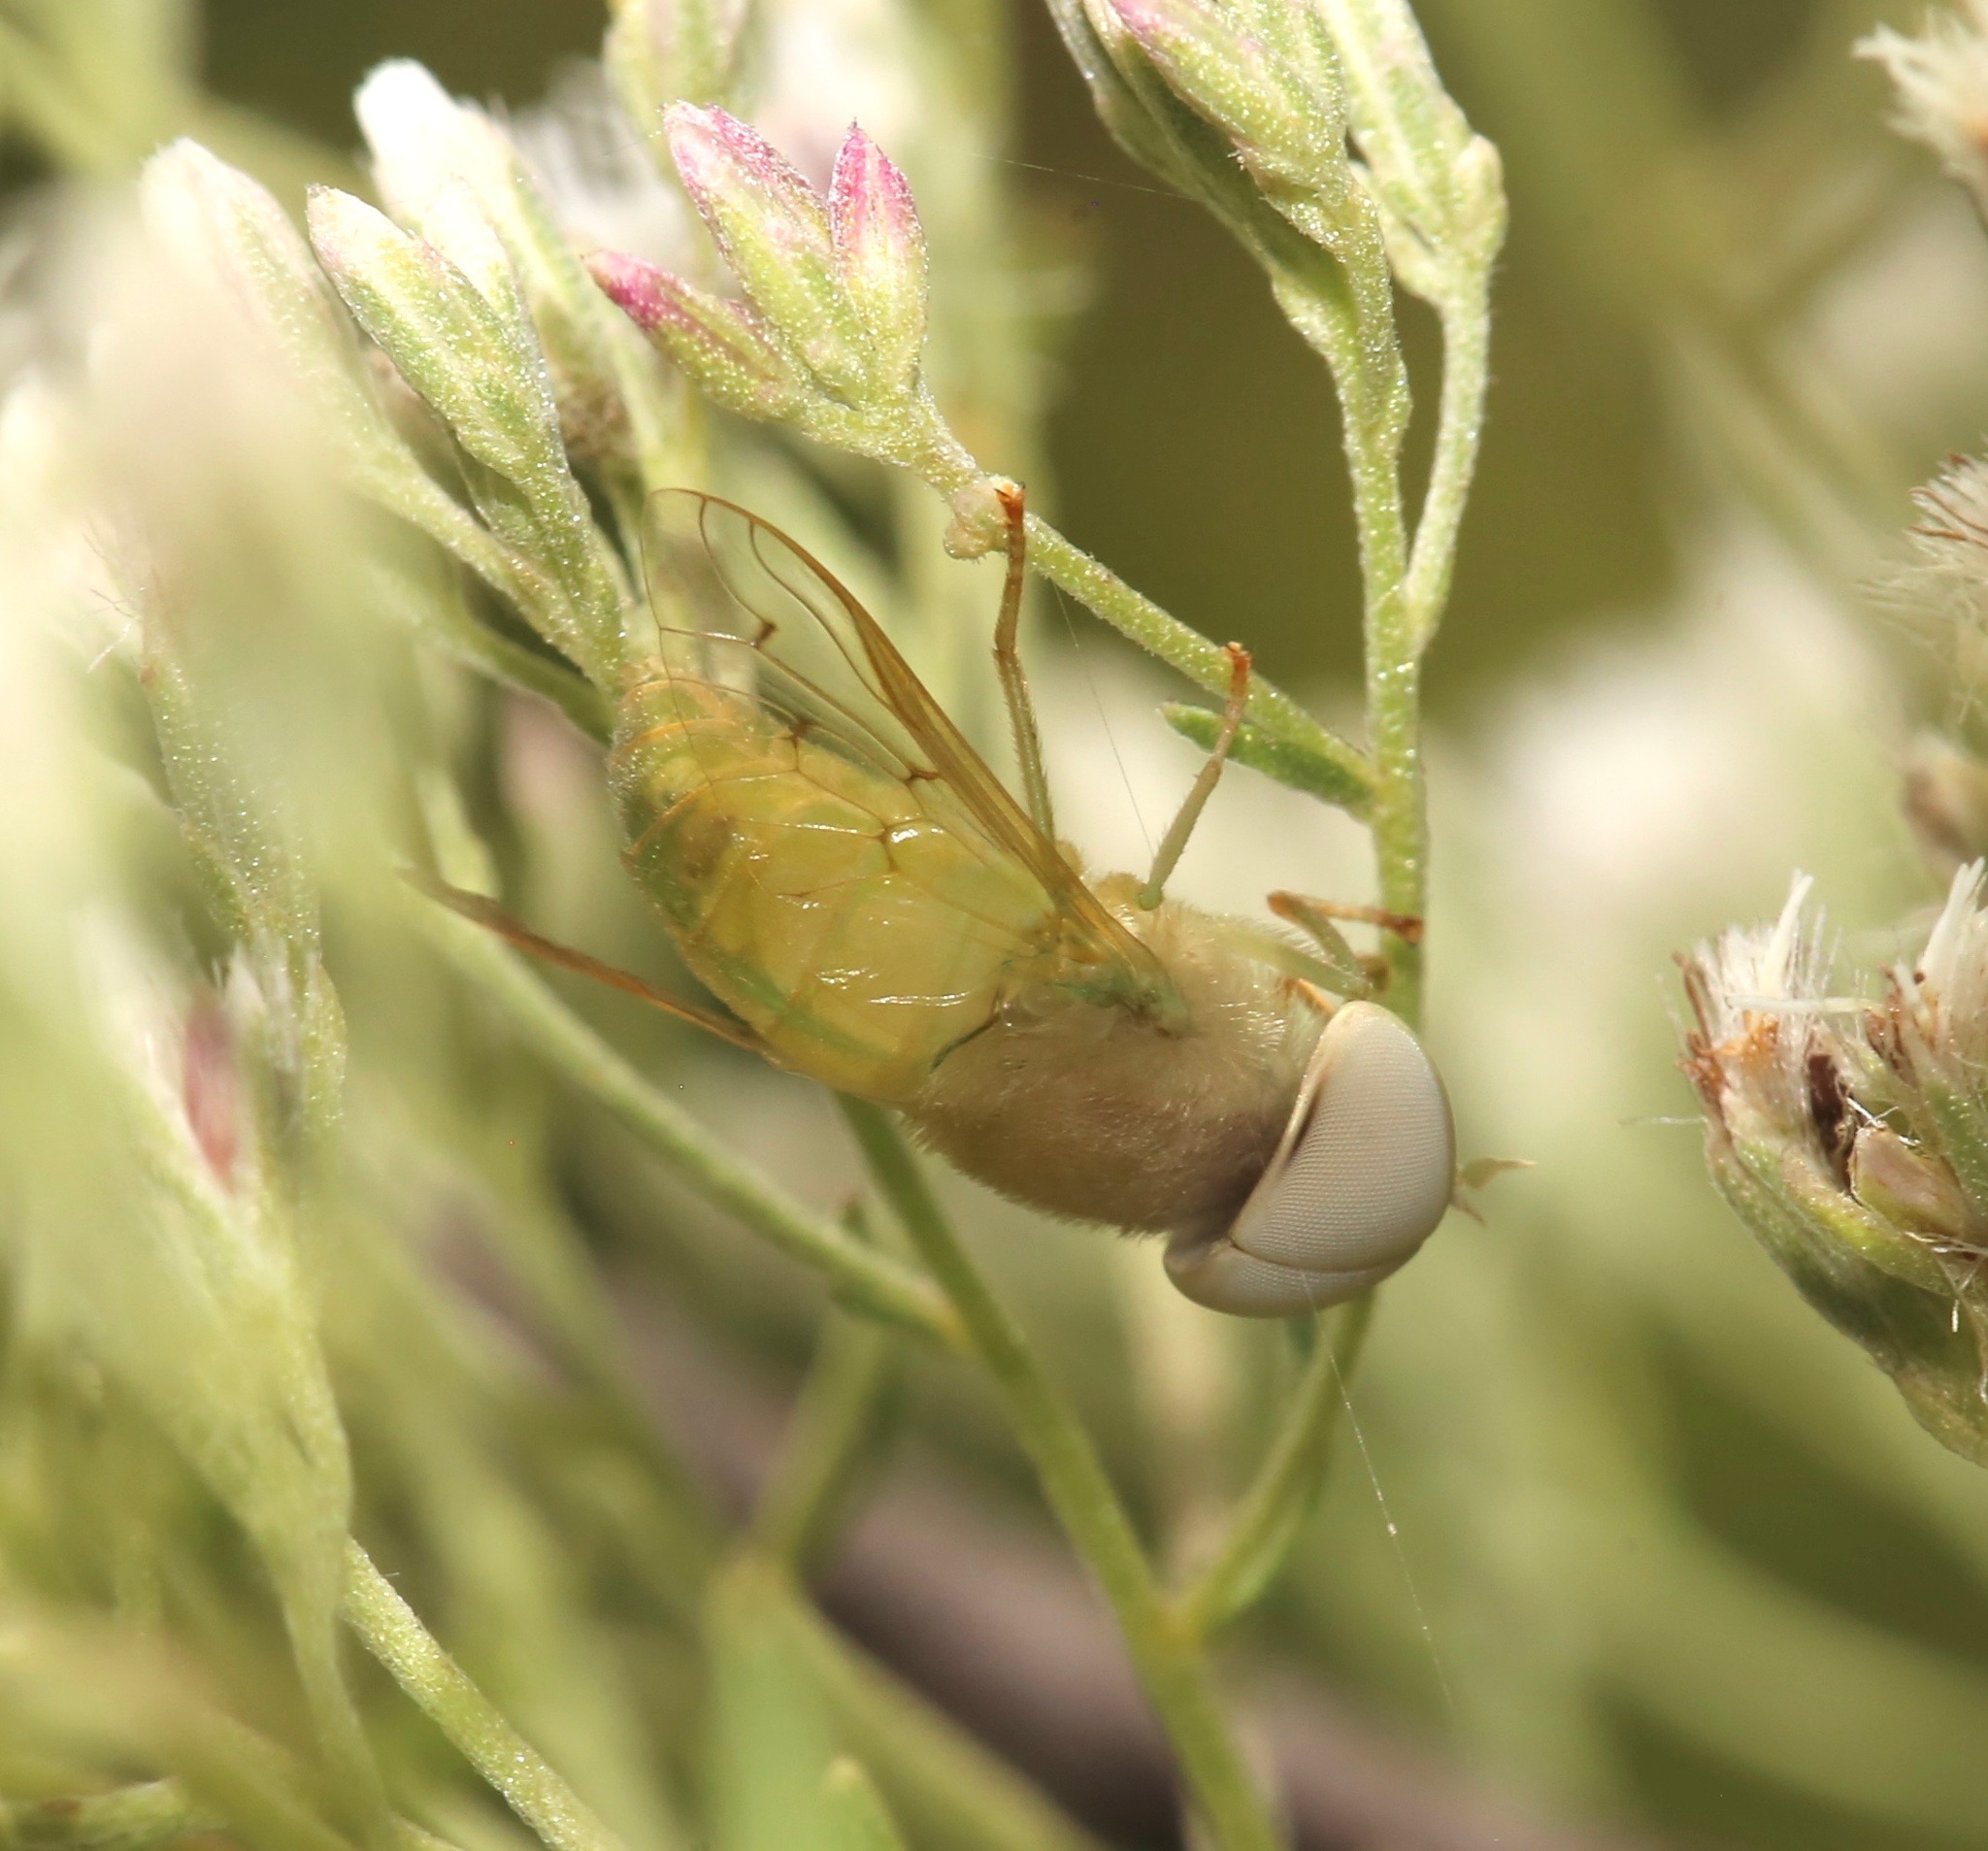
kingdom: Animalia
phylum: Arthropoda
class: Insecta
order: Diptera
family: Tabanidae
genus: Chlorotabanus
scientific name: Chlorotabanus crepuscularis
